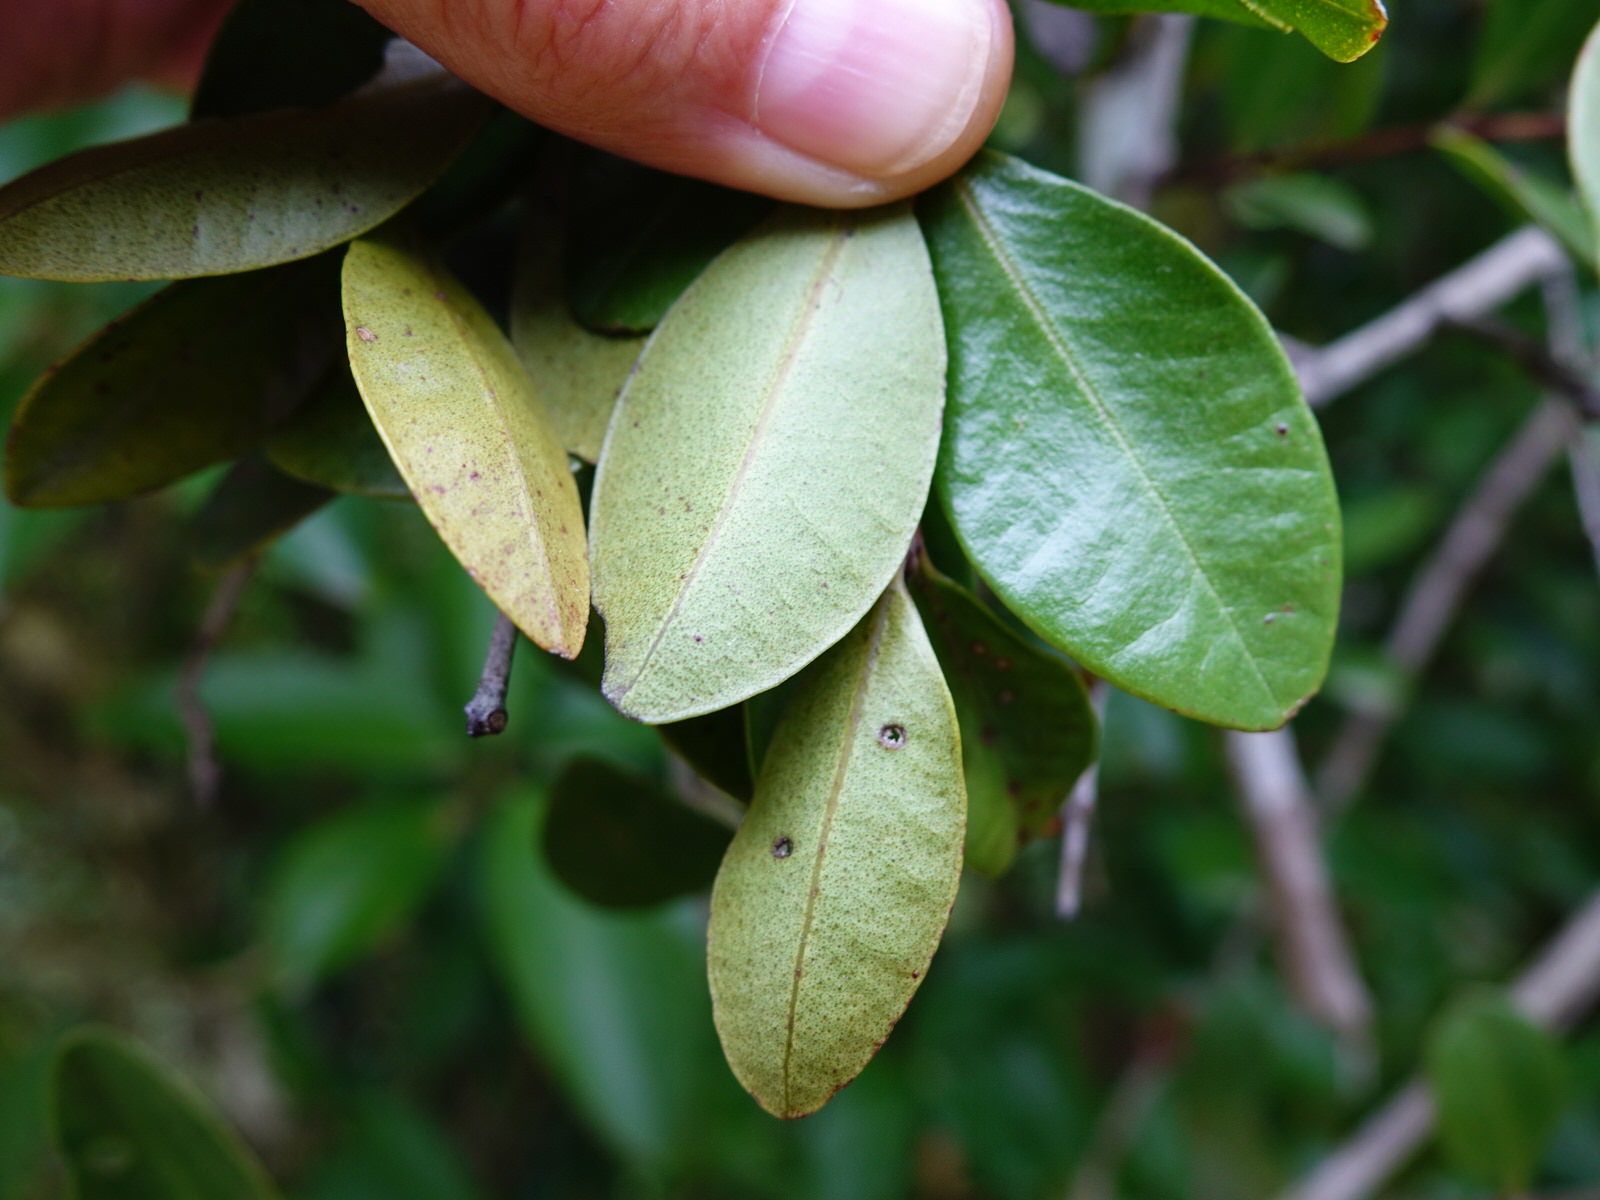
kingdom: Plantae
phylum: Tracheophyta
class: Magnoliopsida
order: Myrtales
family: Myrtaceae
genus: Metrosideros
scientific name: Metrosideros fulgens
